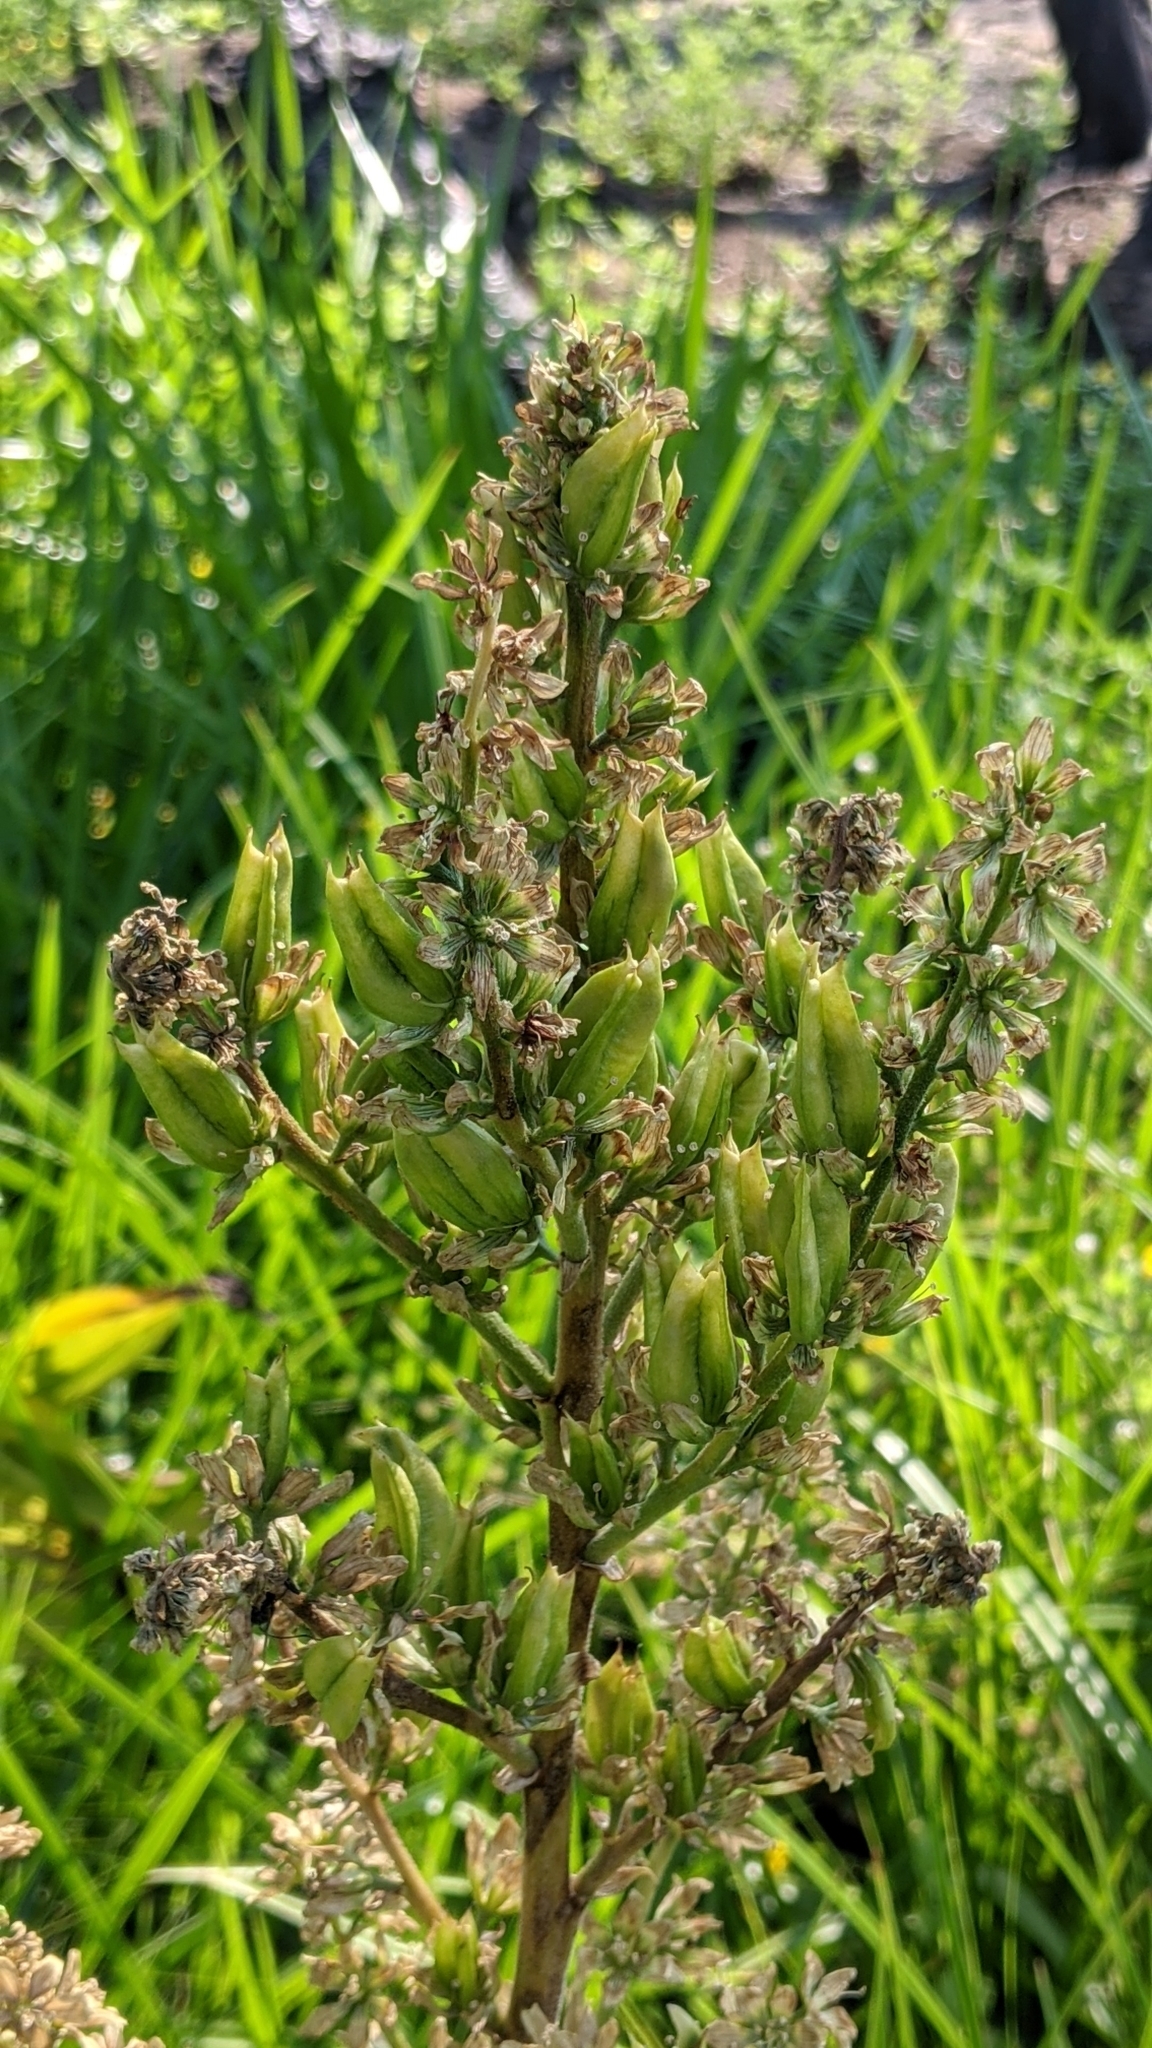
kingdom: Plantae
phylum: Tracheophyta
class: Liliopsida
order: Liliales
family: Melanthiaceae
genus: Veratrum
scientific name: Veratrum californicum
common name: California veratrum
